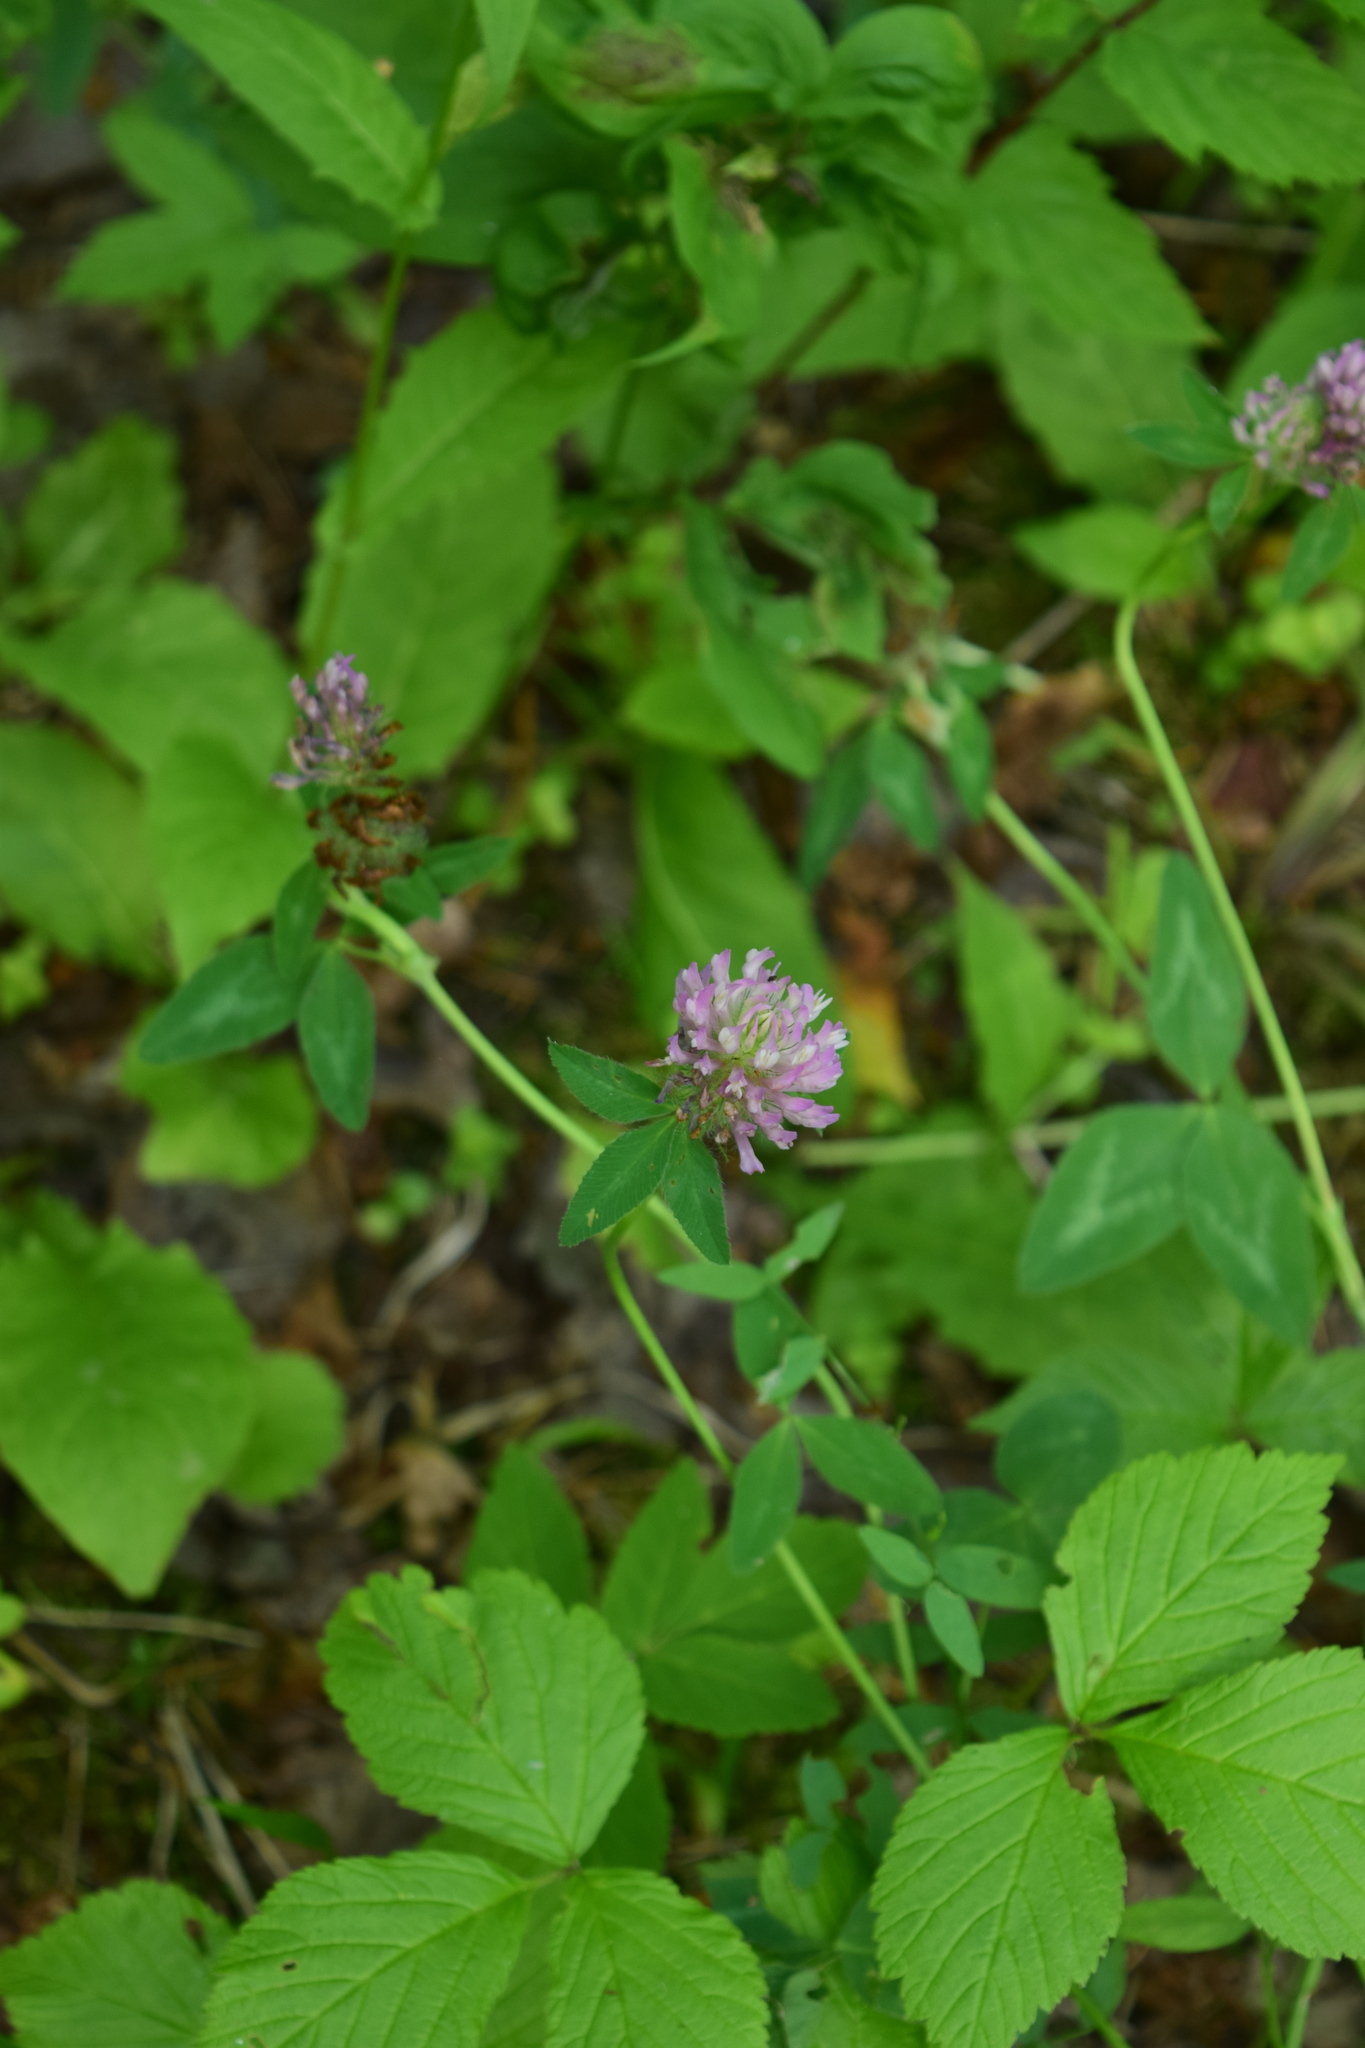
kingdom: Plantae
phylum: Tracheophyta
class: Magnoliopsida
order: Fabales
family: Fabaceae
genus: Trifolium
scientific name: Trifolium pratense
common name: Red clover
